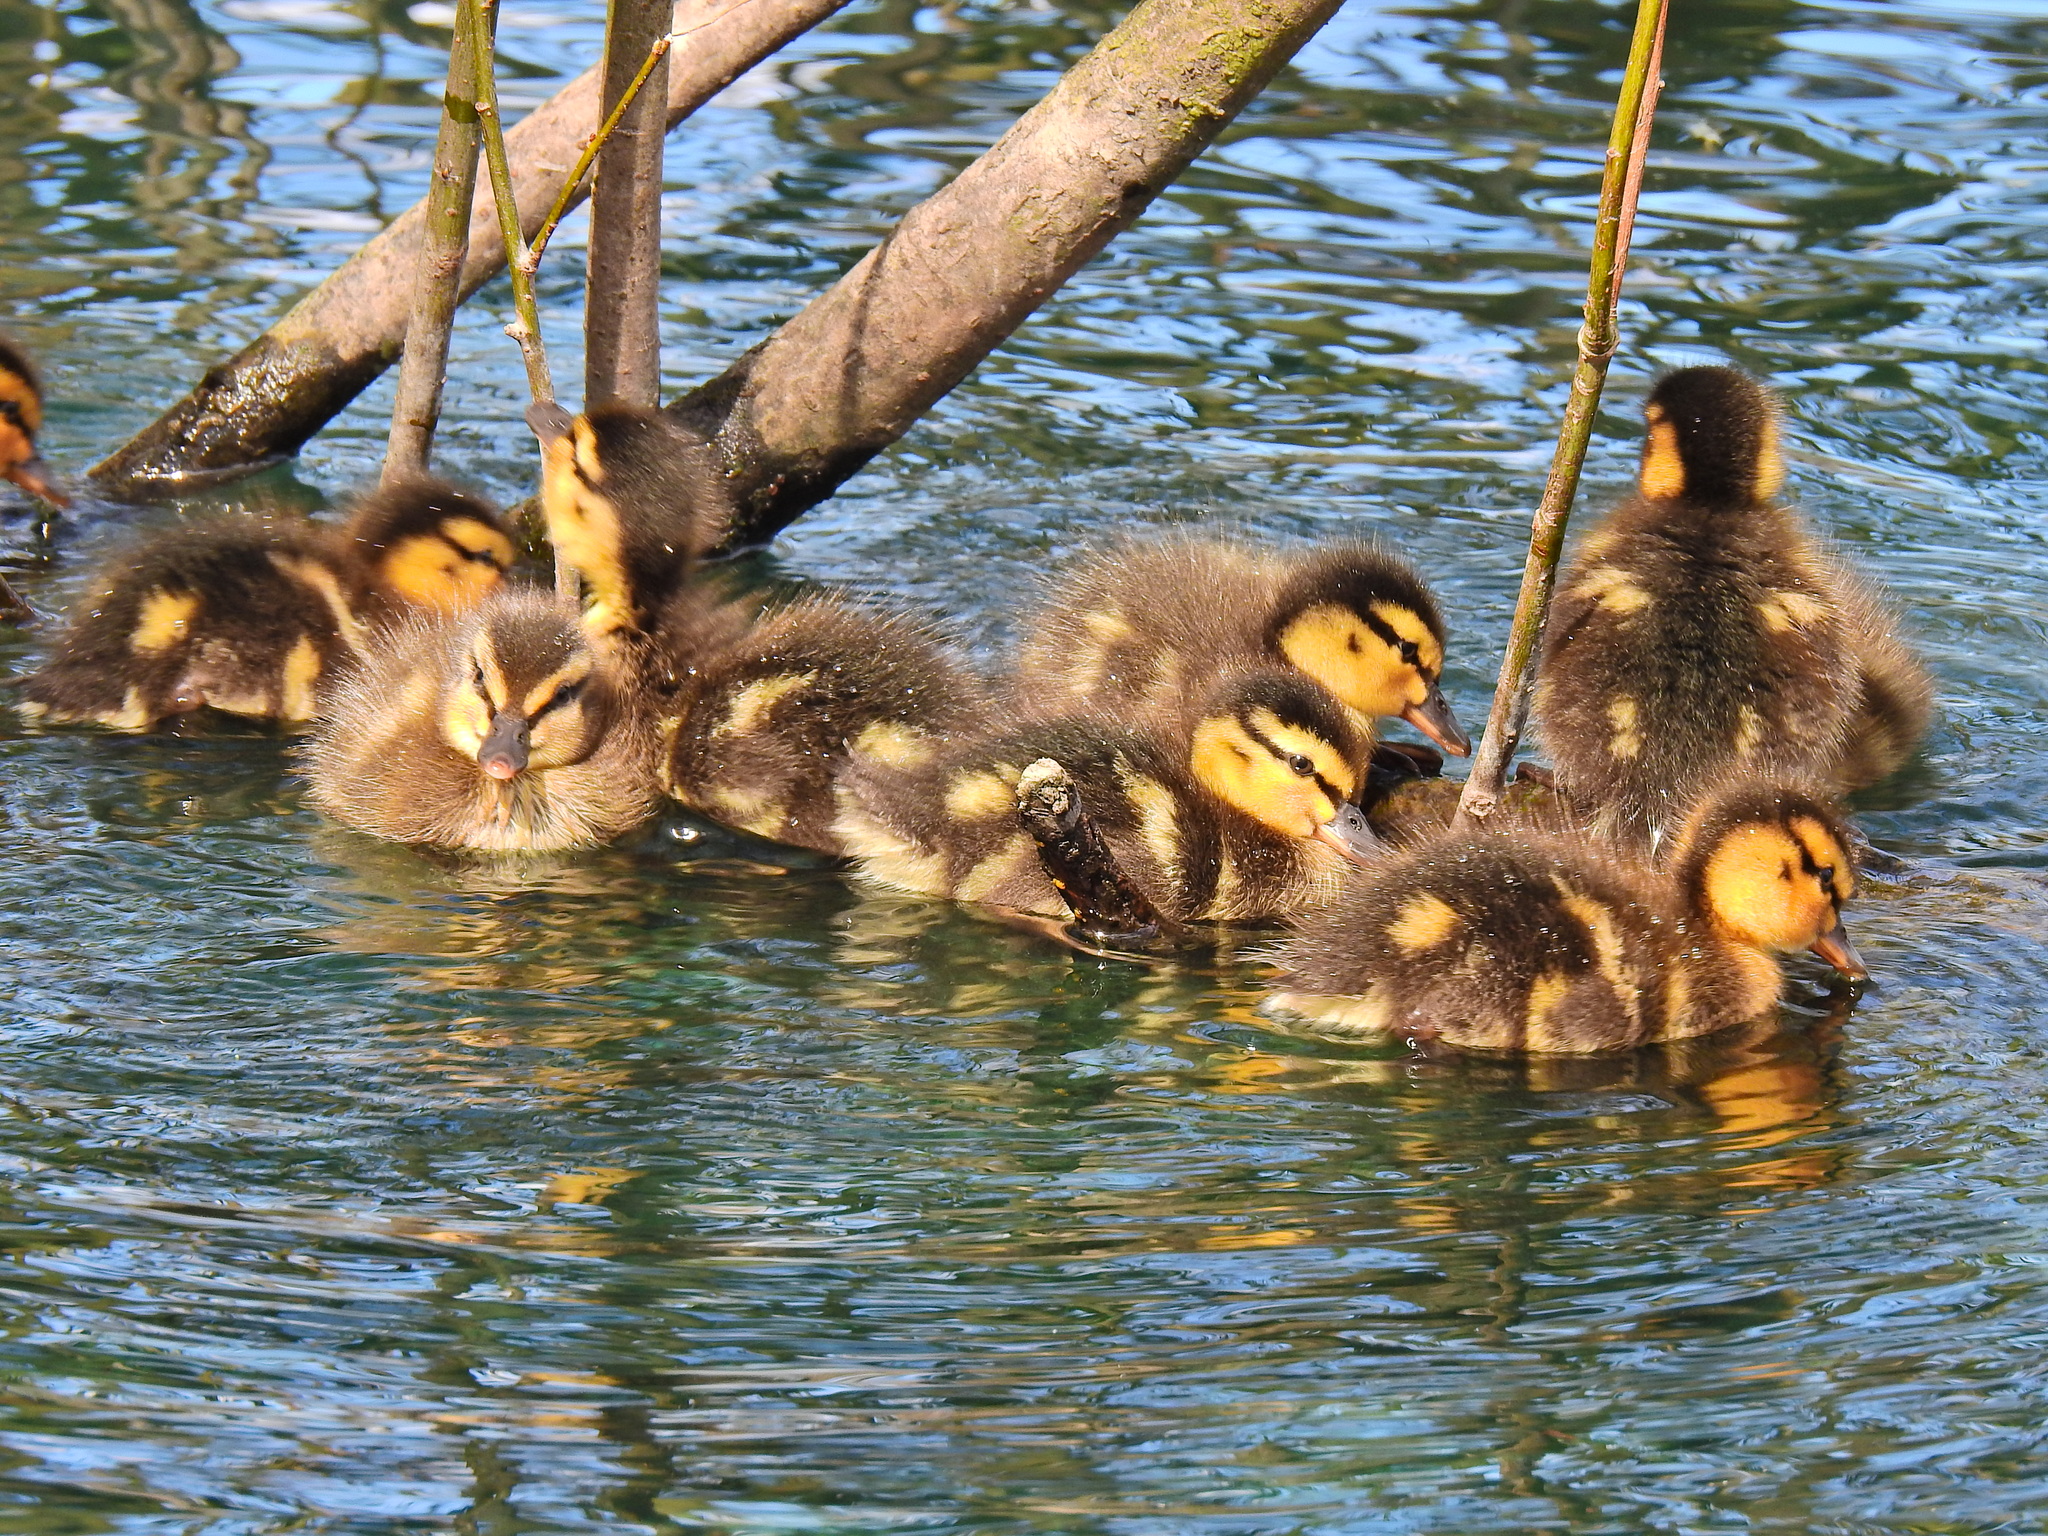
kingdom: Animalia
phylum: Chordata
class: Aves
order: Anseriformes
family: Anatidae
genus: Anas
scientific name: Anas platyrhynchos
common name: Mallard
